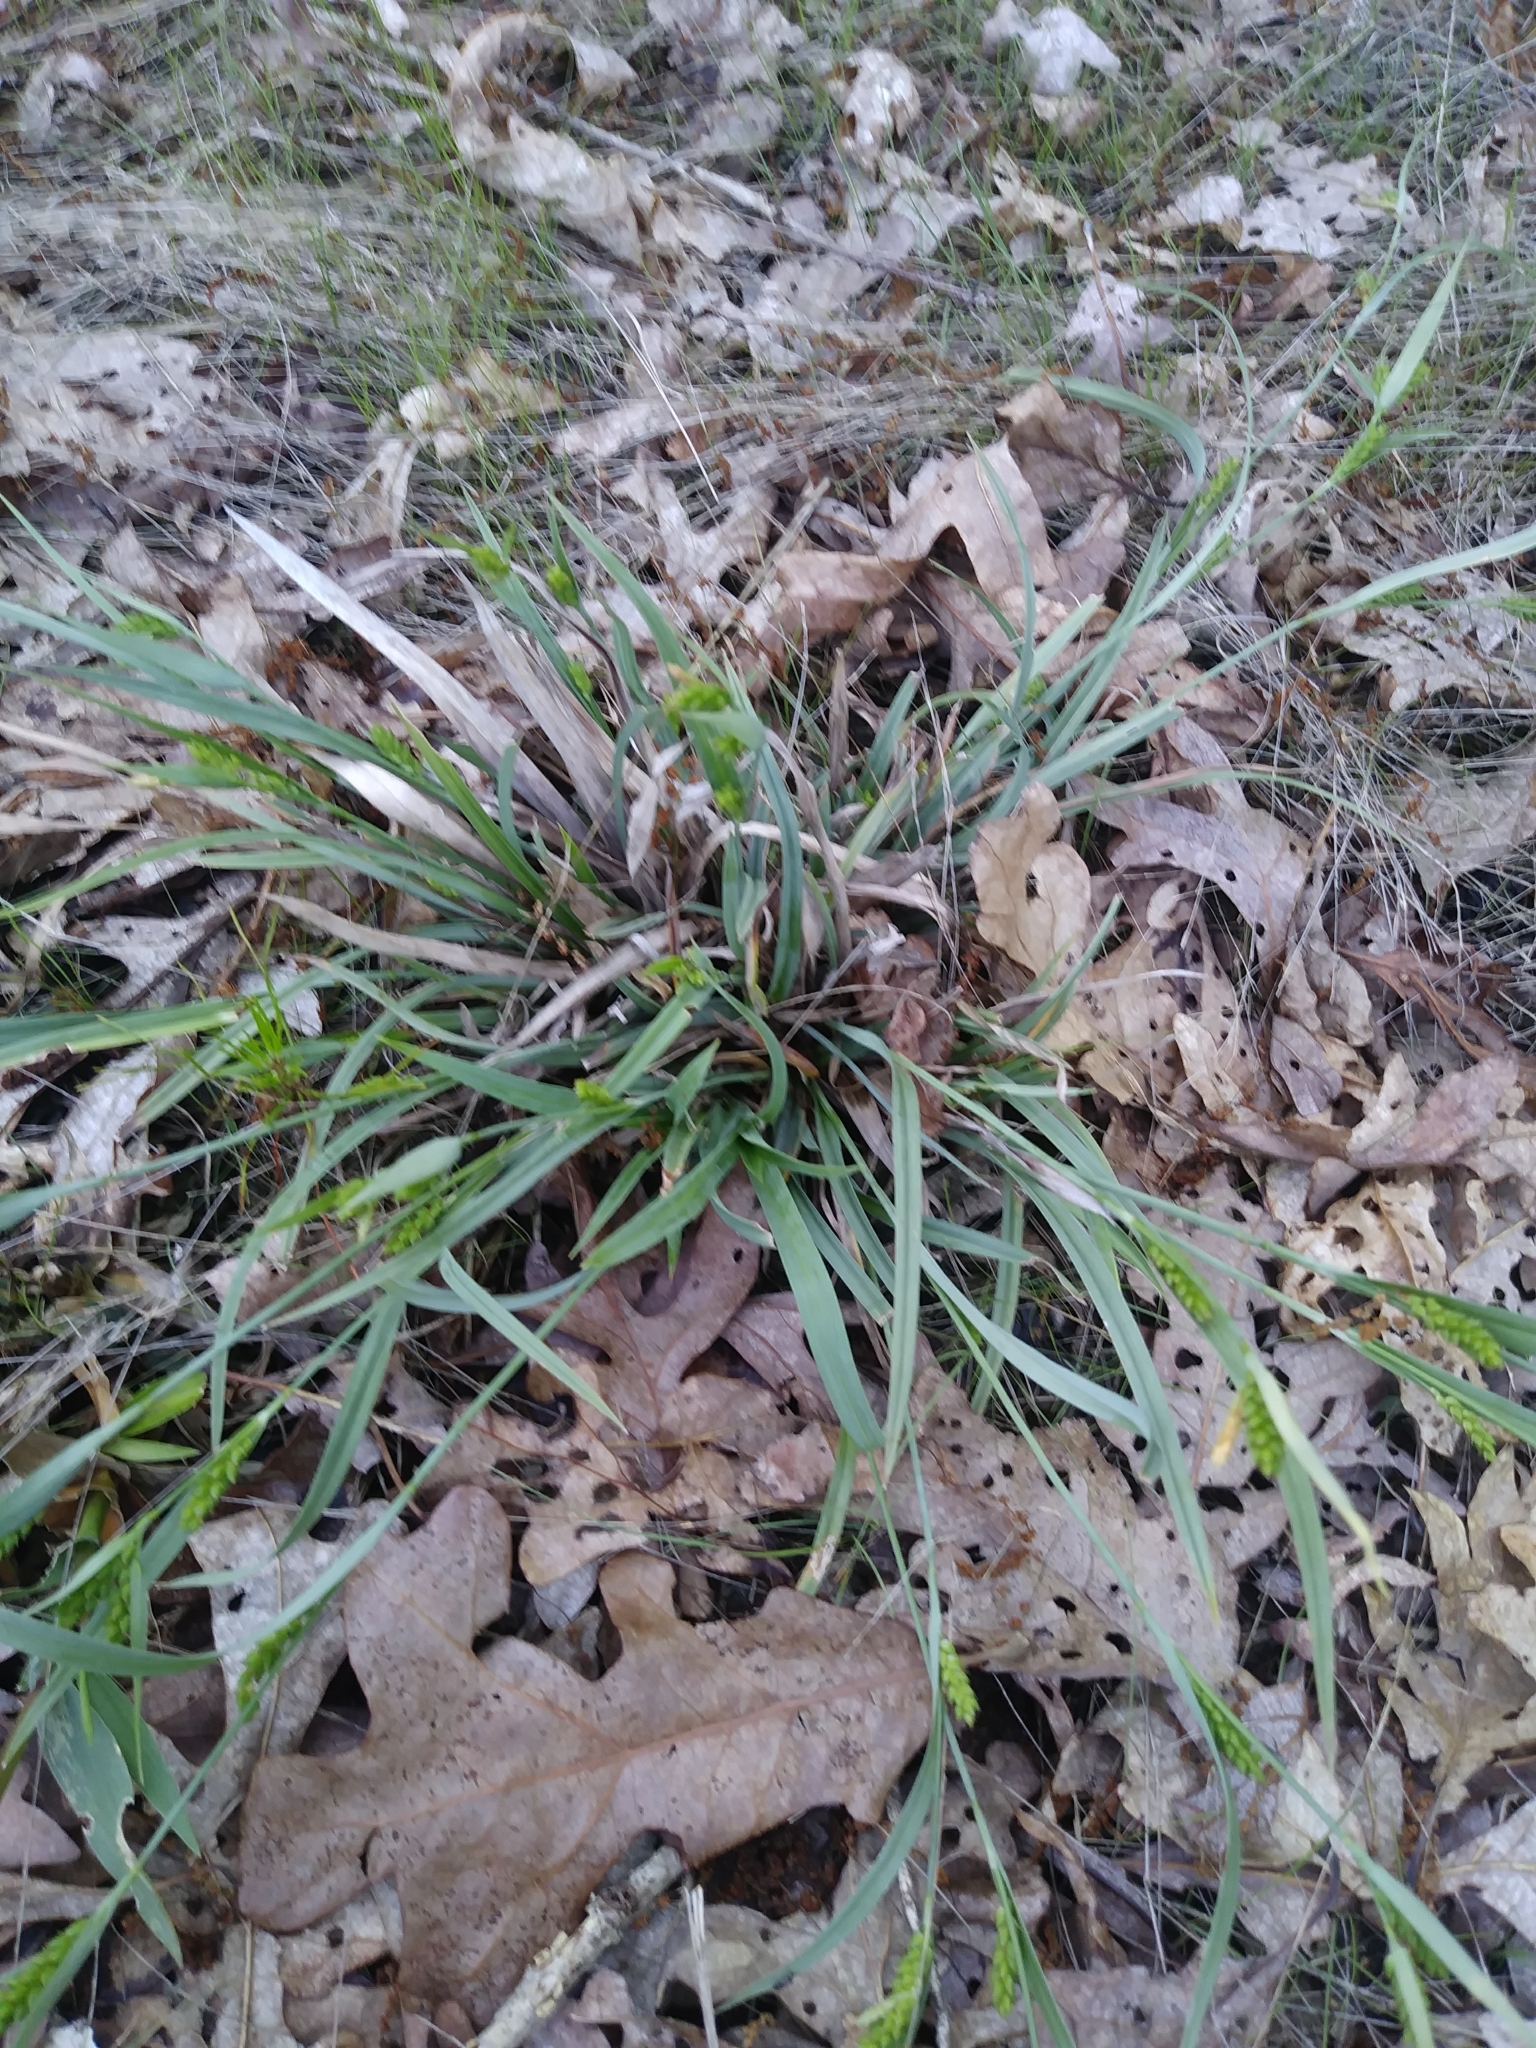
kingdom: Plantae
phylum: Tracheophyta
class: Liliopsida
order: Poales
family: Cyperaceae
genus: Carex
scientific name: Carex glaucodea
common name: Blue sedge
